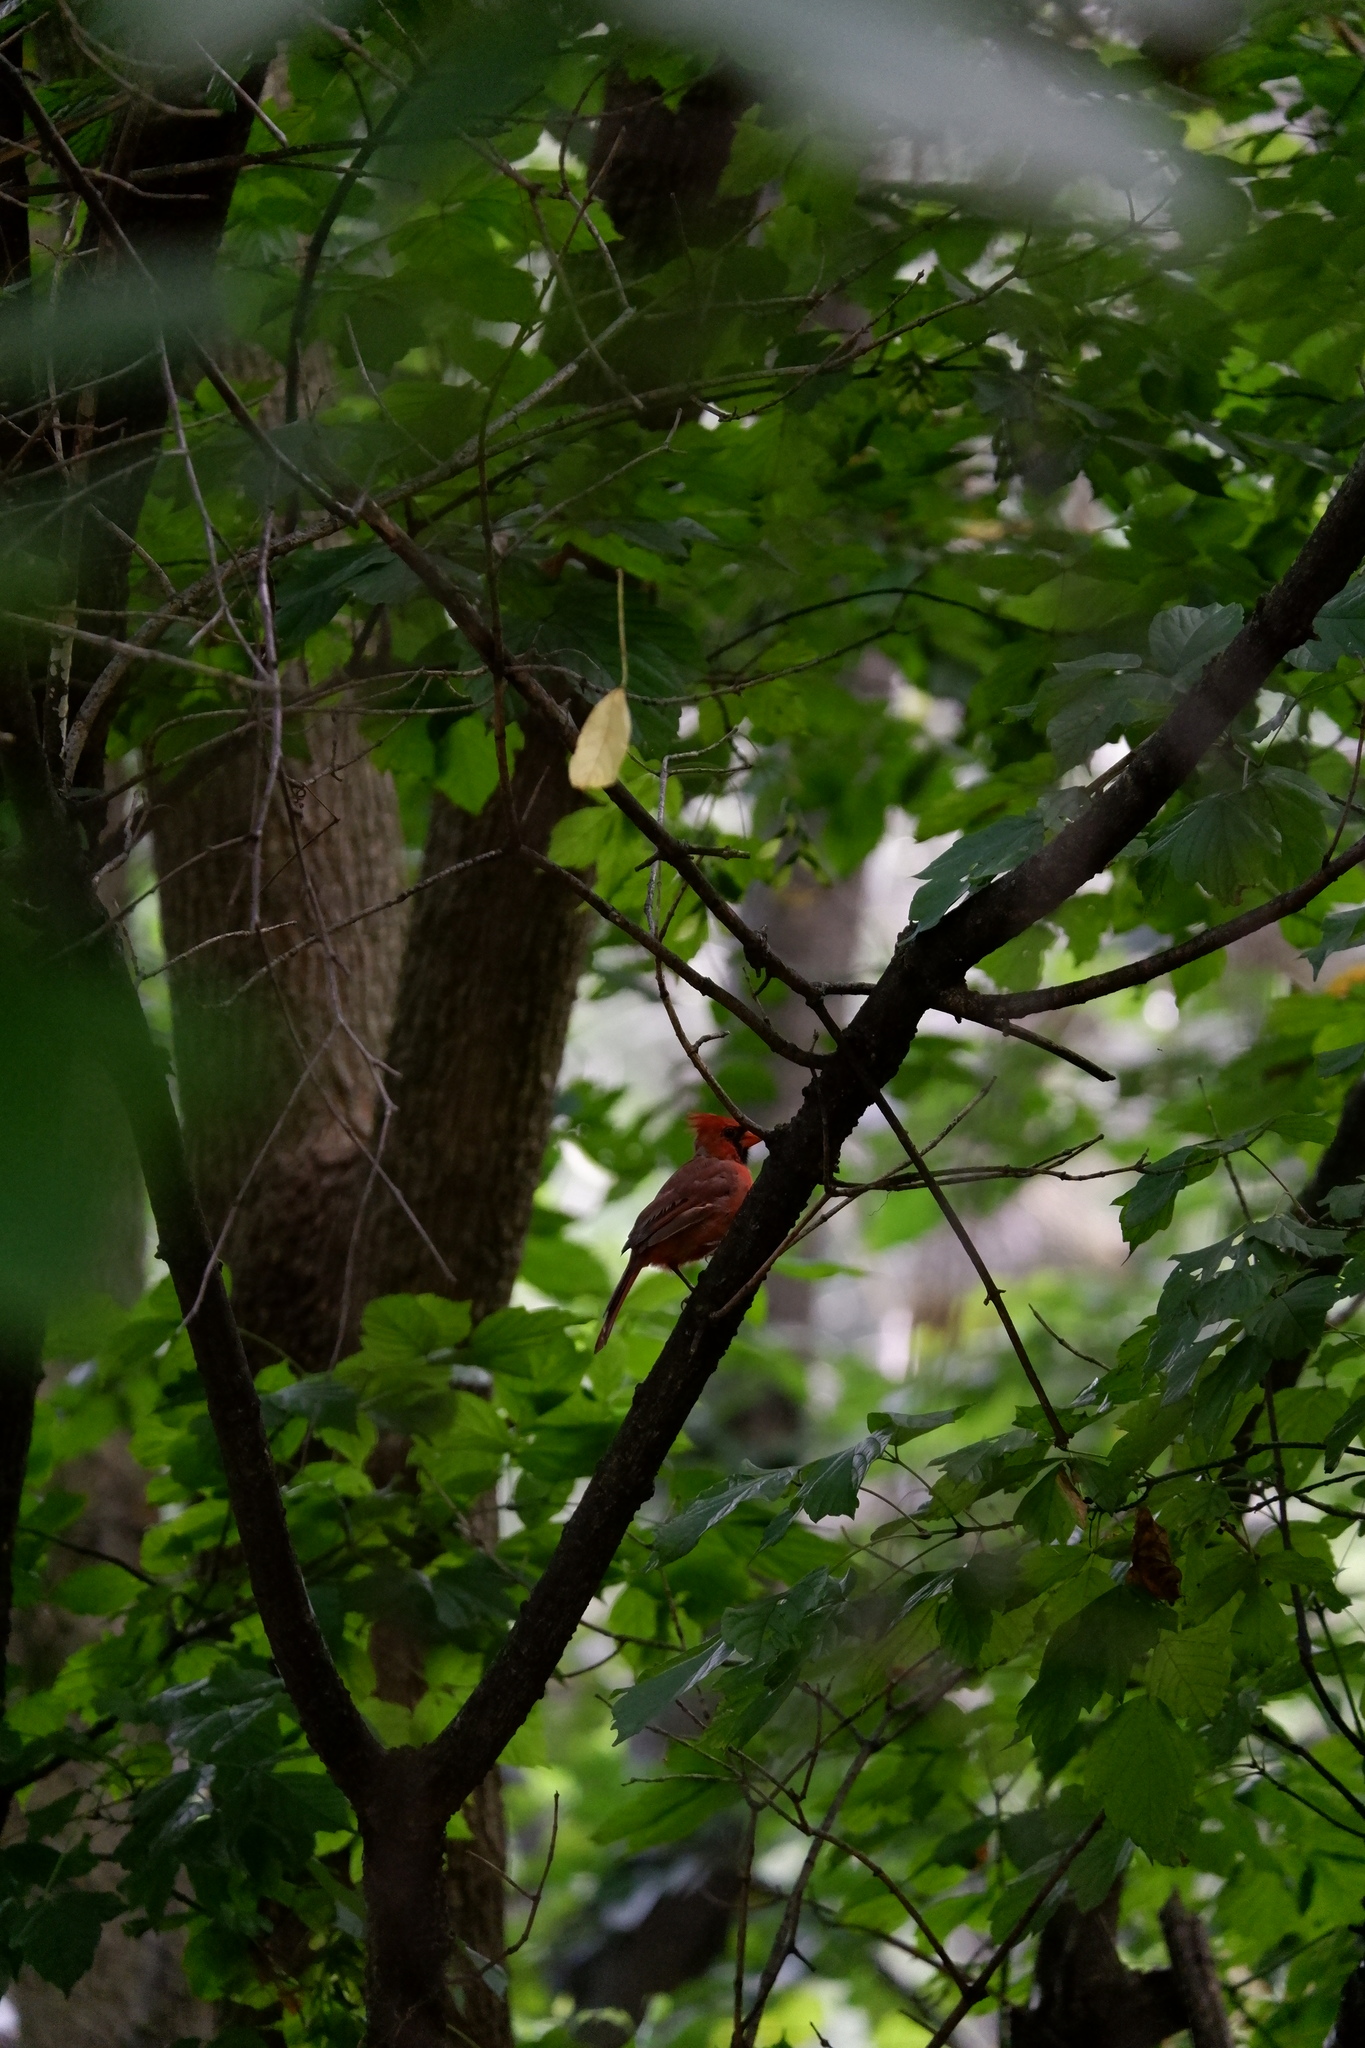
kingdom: Animalia
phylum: Chordata
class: Aves
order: Passeriformes
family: Cardinalidae
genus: Cardinalis
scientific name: Cardinalis cardinalis
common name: Northern cardinal
